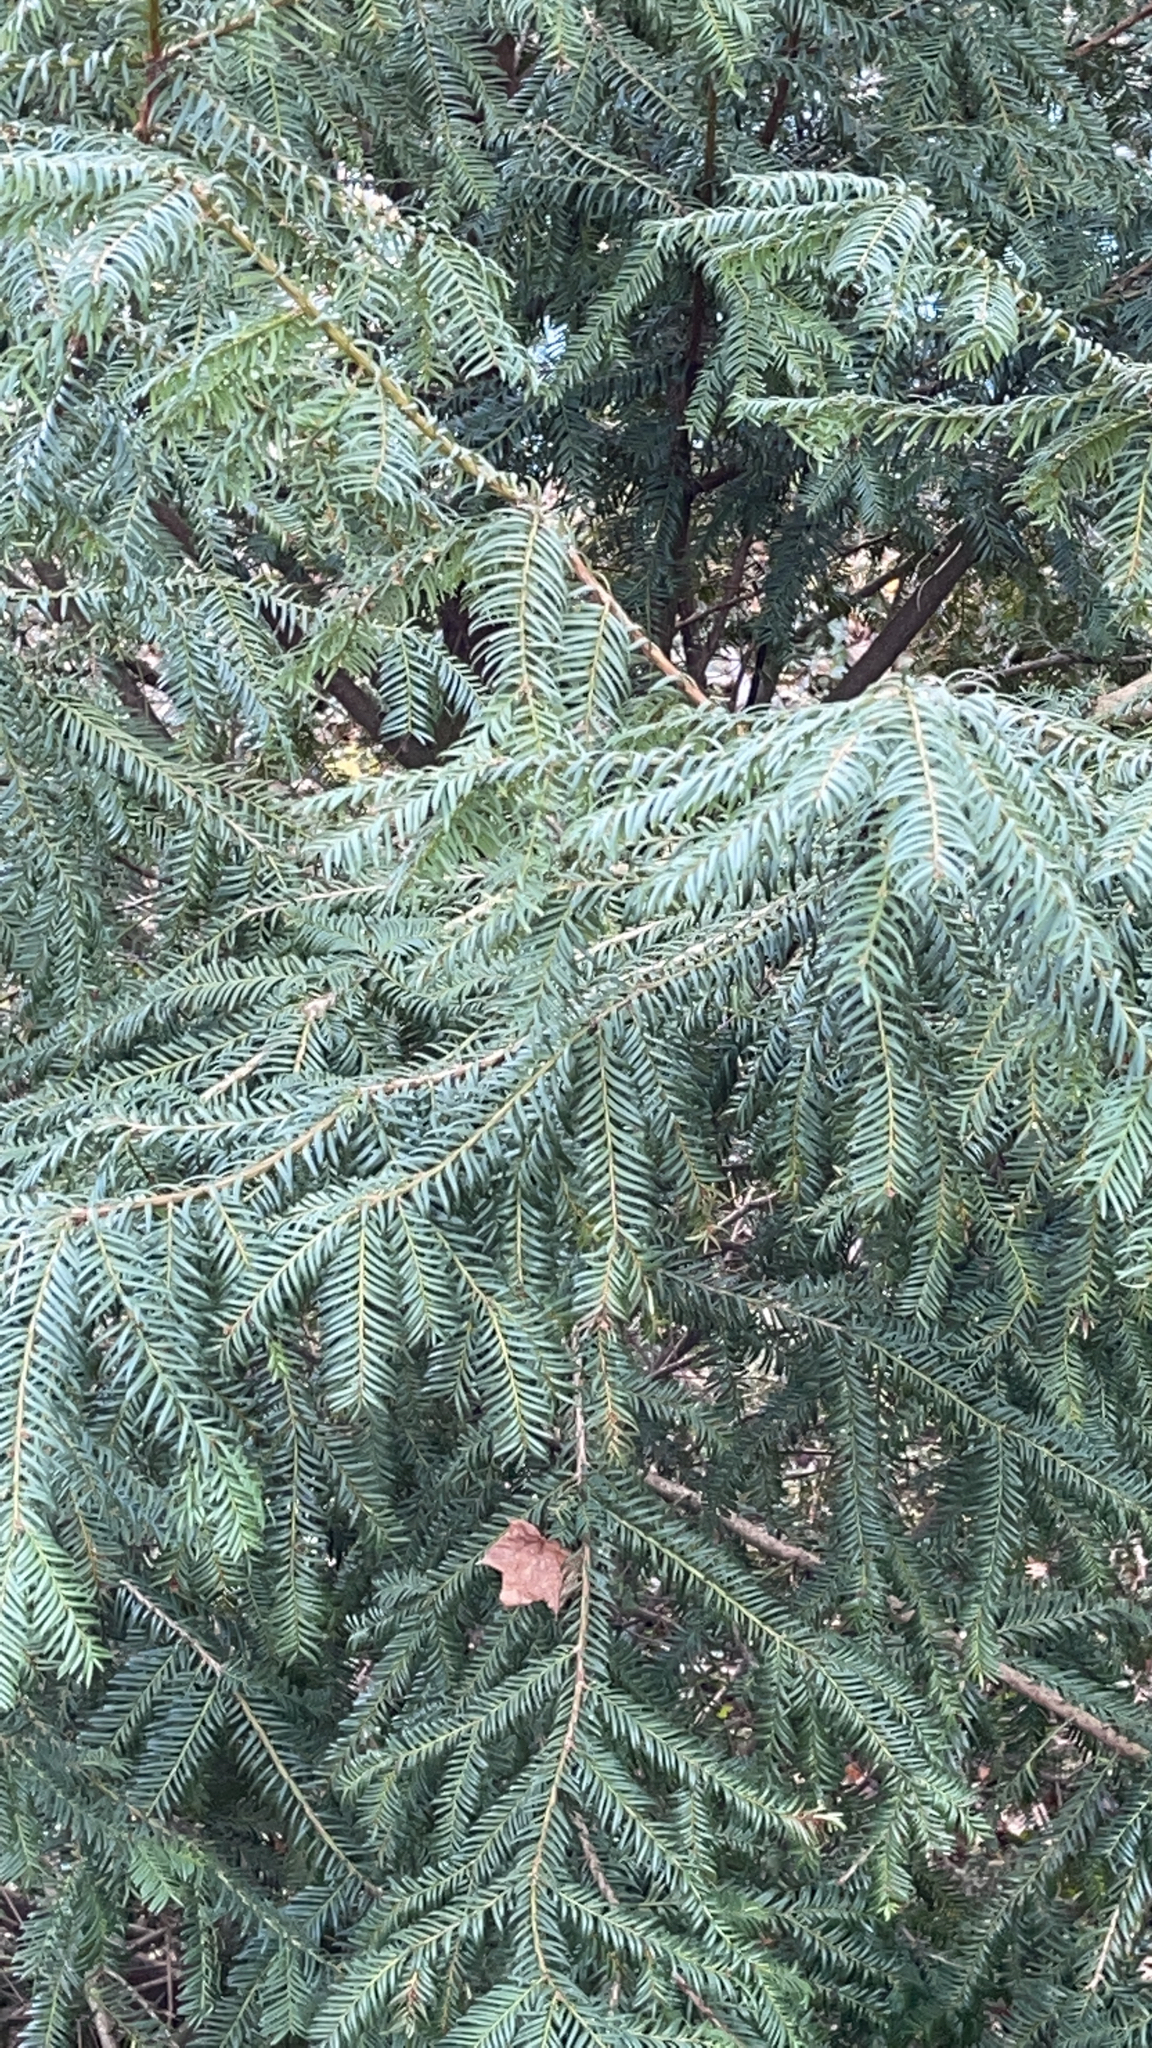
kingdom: Plantae
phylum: Tracheophyta
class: Pinopsida
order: Pinales
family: Taxaceae
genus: Taxus
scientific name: Taxus baccata
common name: Yew
